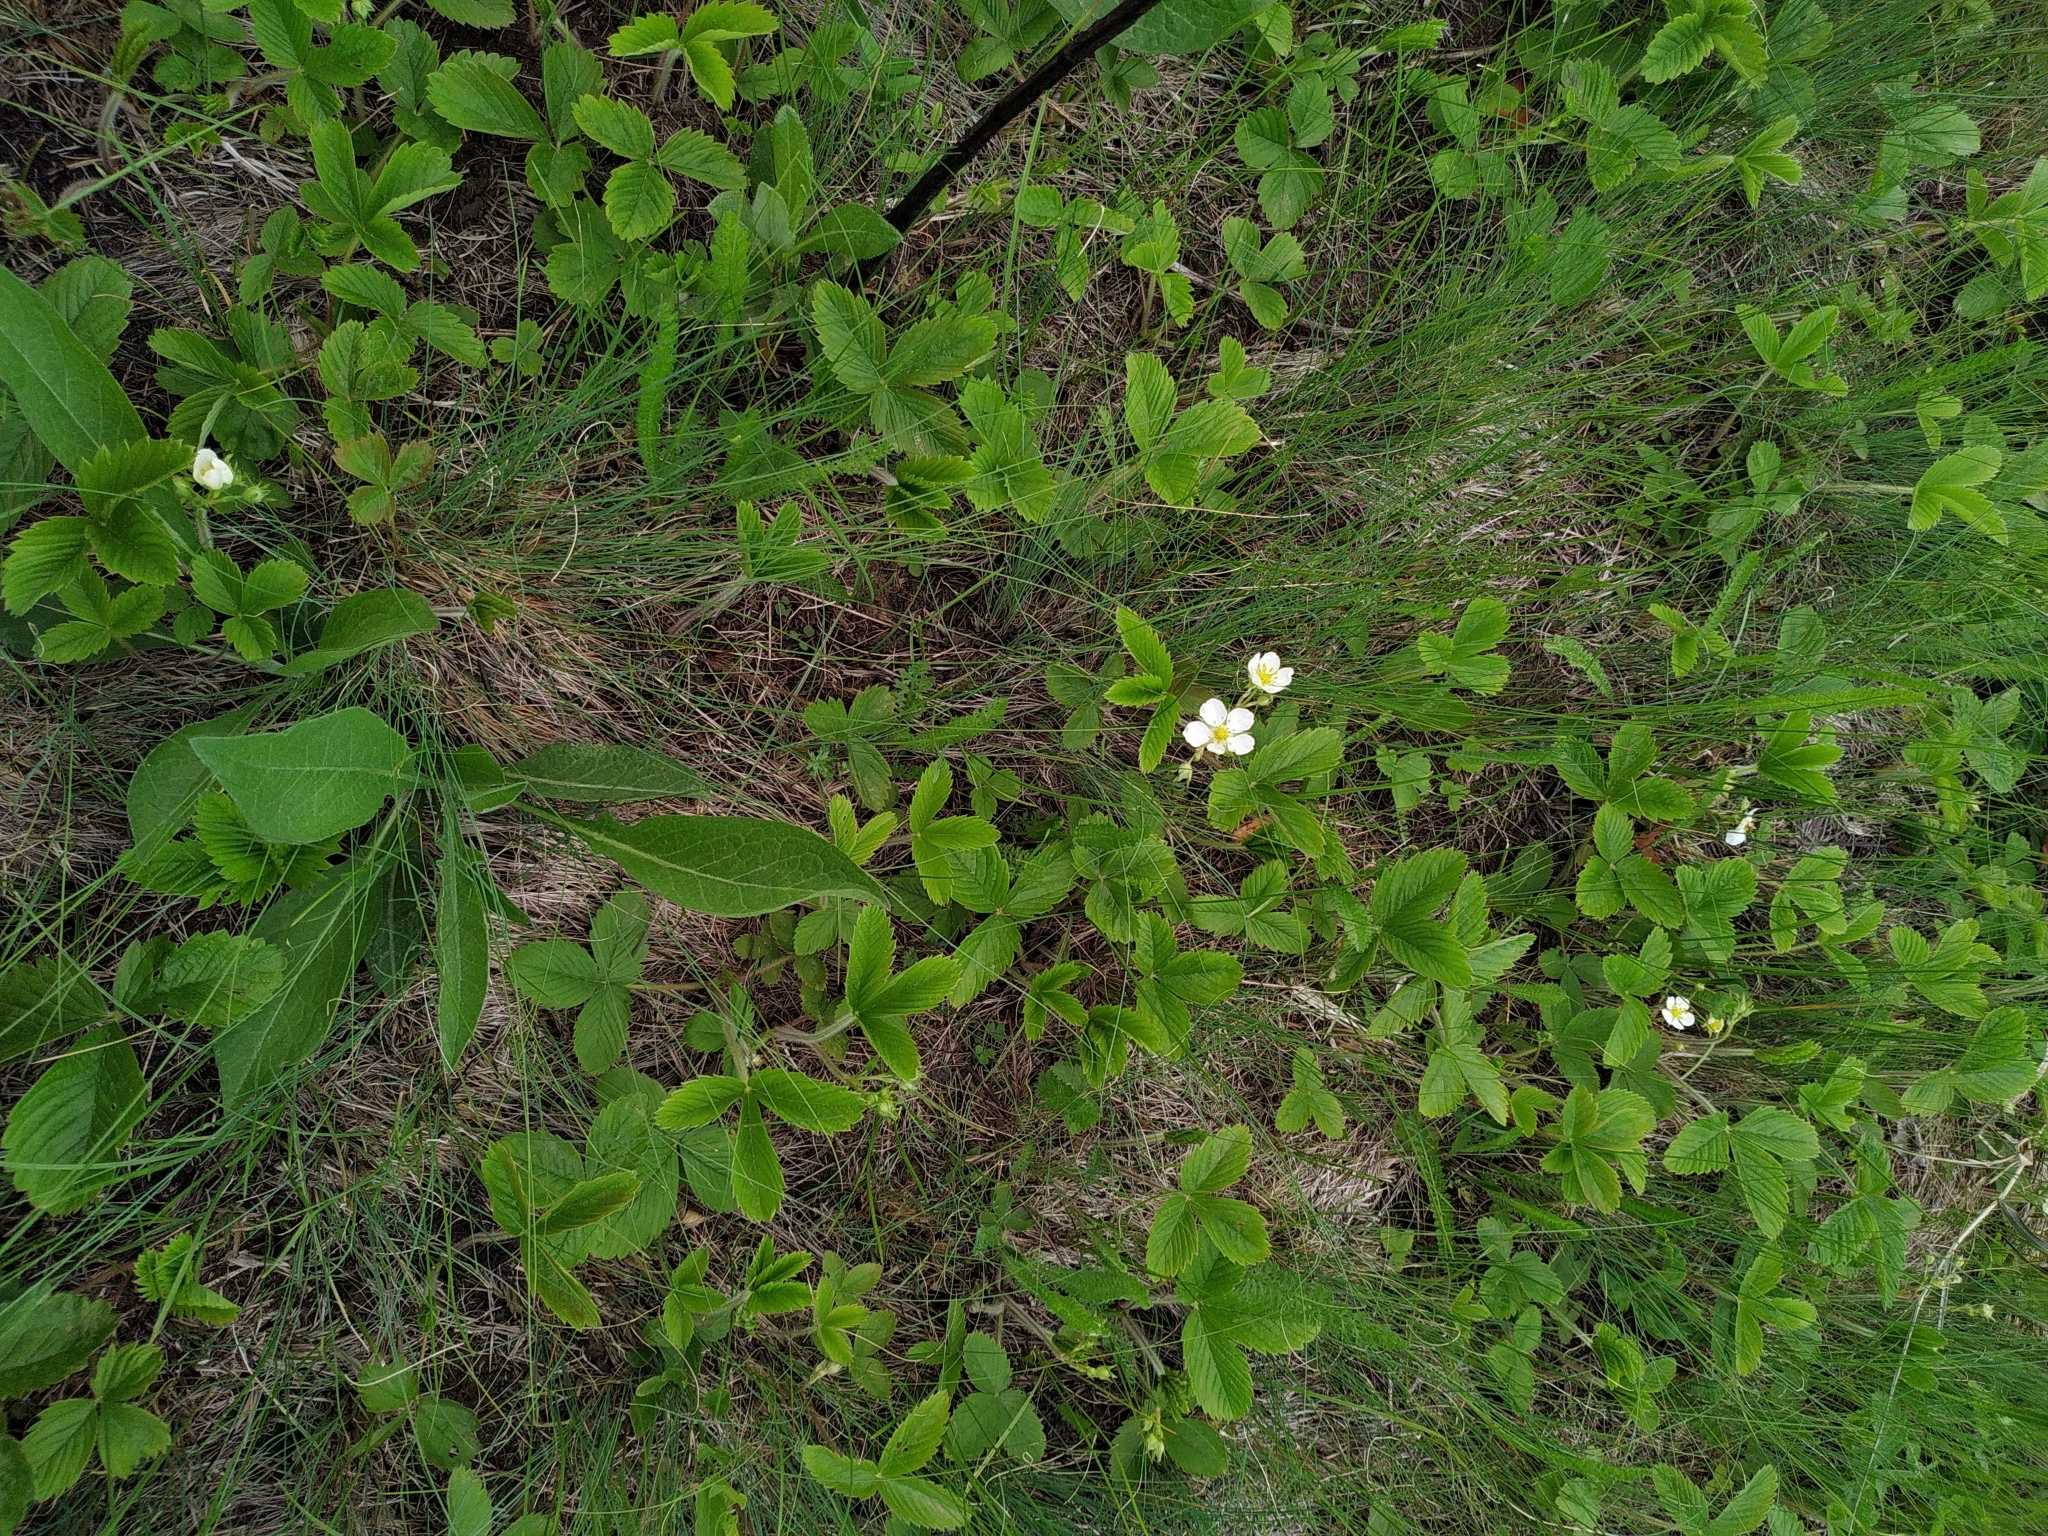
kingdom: Plantae
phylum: Tracheophyta
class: Magnoliopsida
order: Rosales
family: Rosaceae
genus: Fragaria
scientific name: Fragaria viridis
